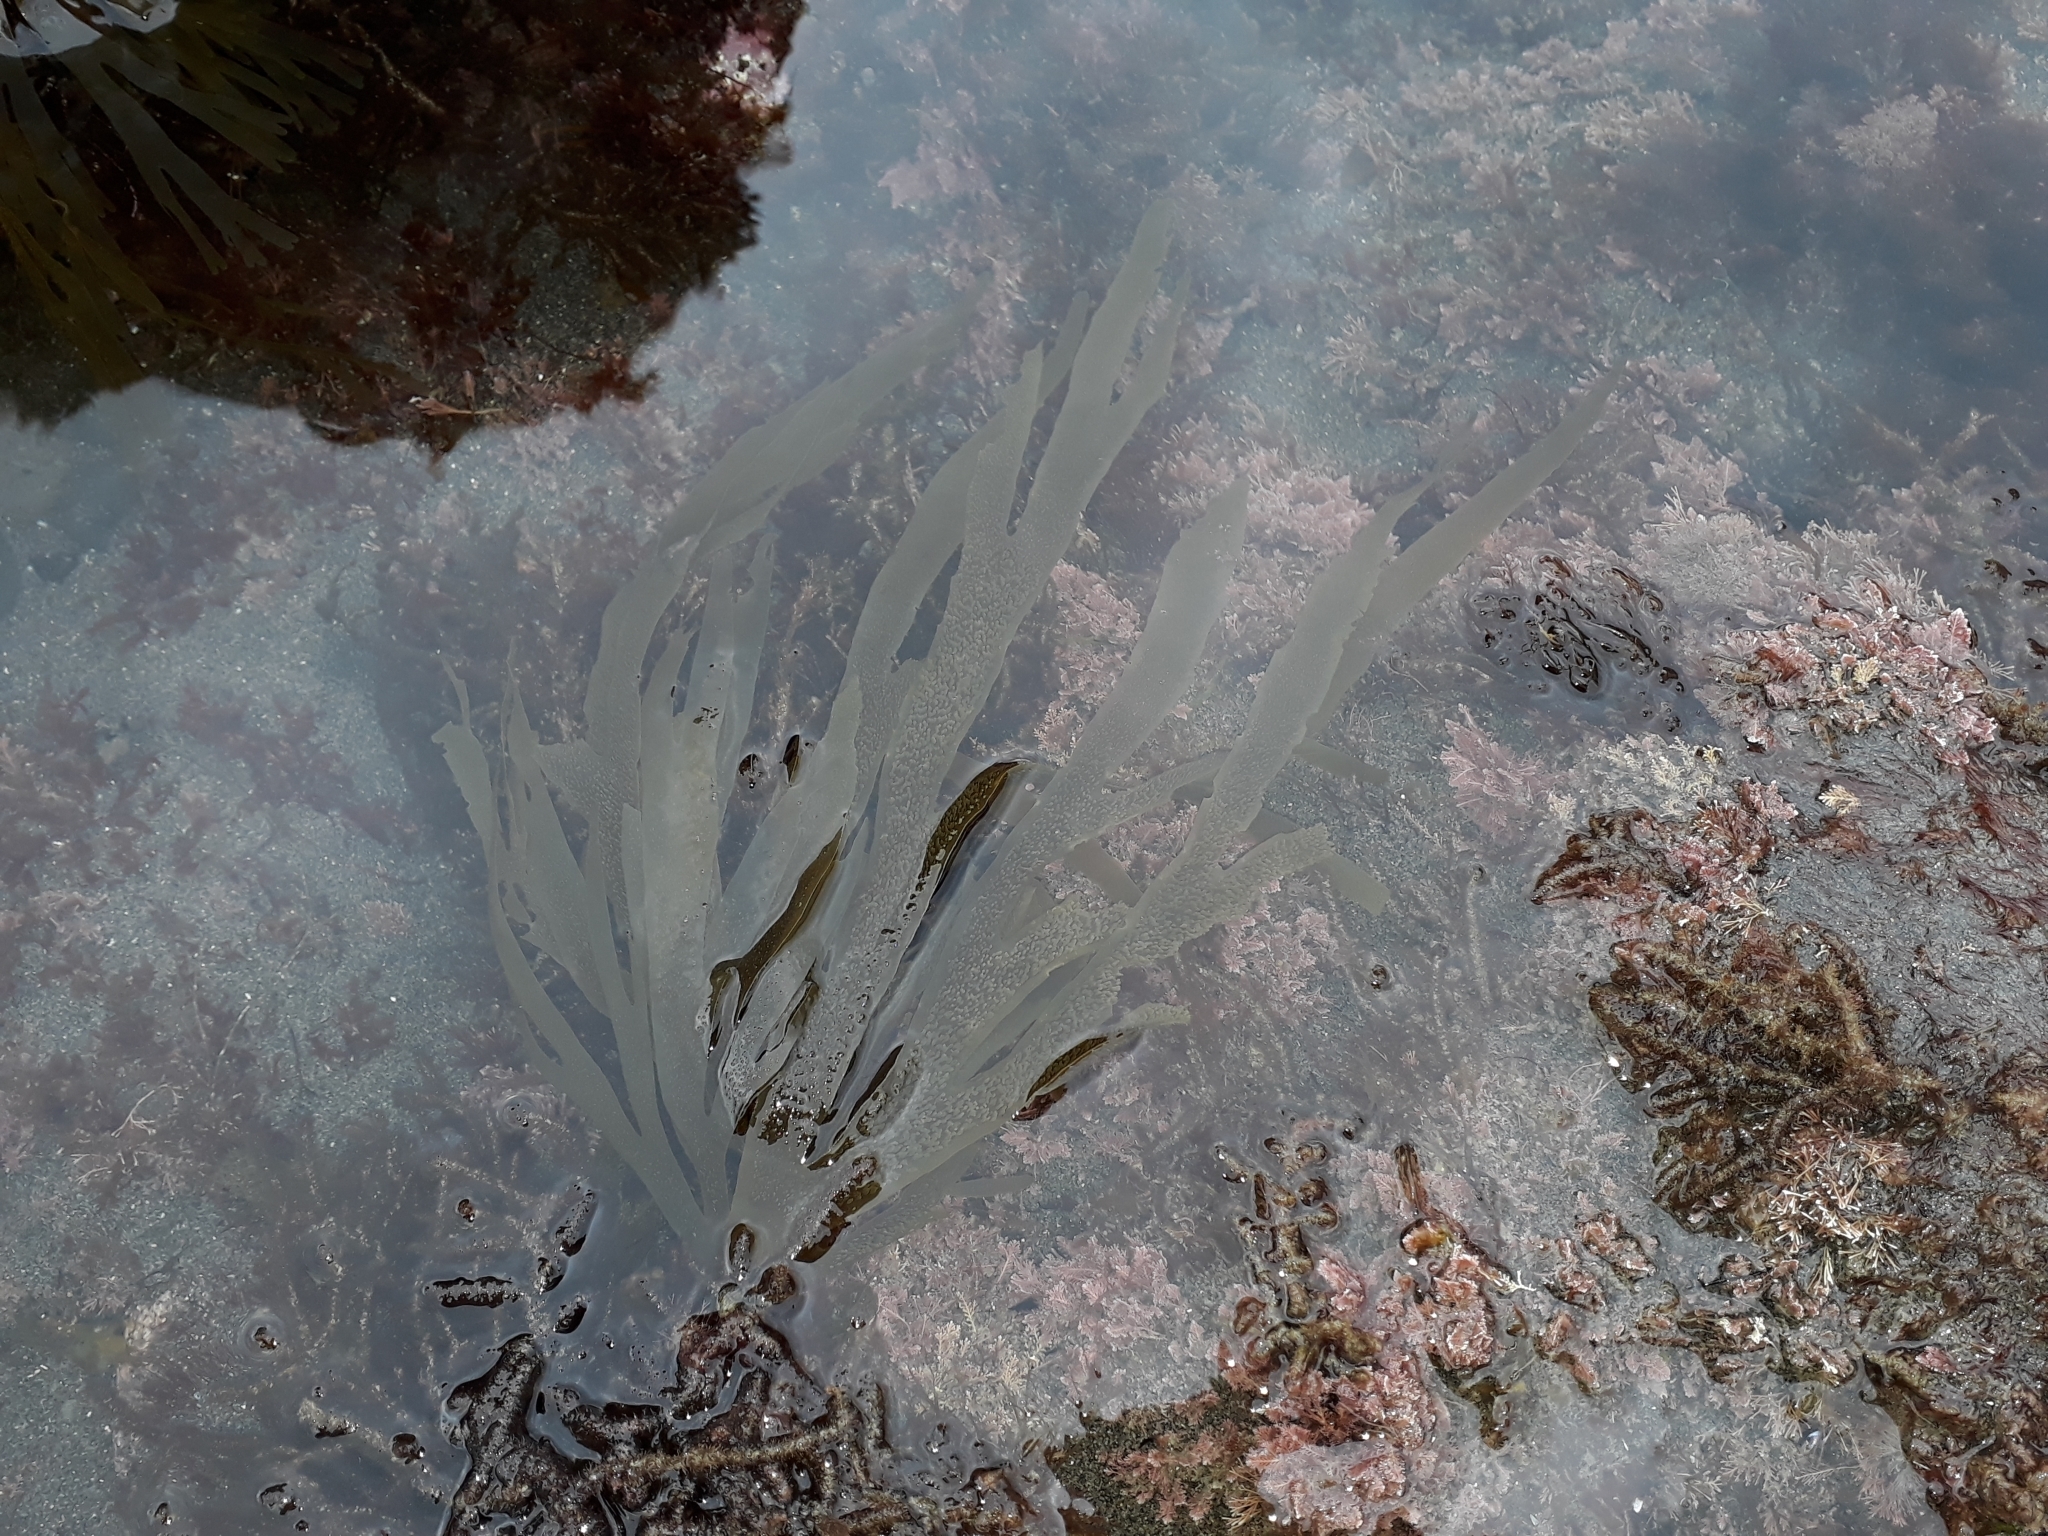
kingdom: Chromista
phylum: Ochrophyta
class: Phaeophyceae
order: Dictyotales
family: Dictyotaceae
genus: Dictyota
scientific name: Dictyota kunthii
